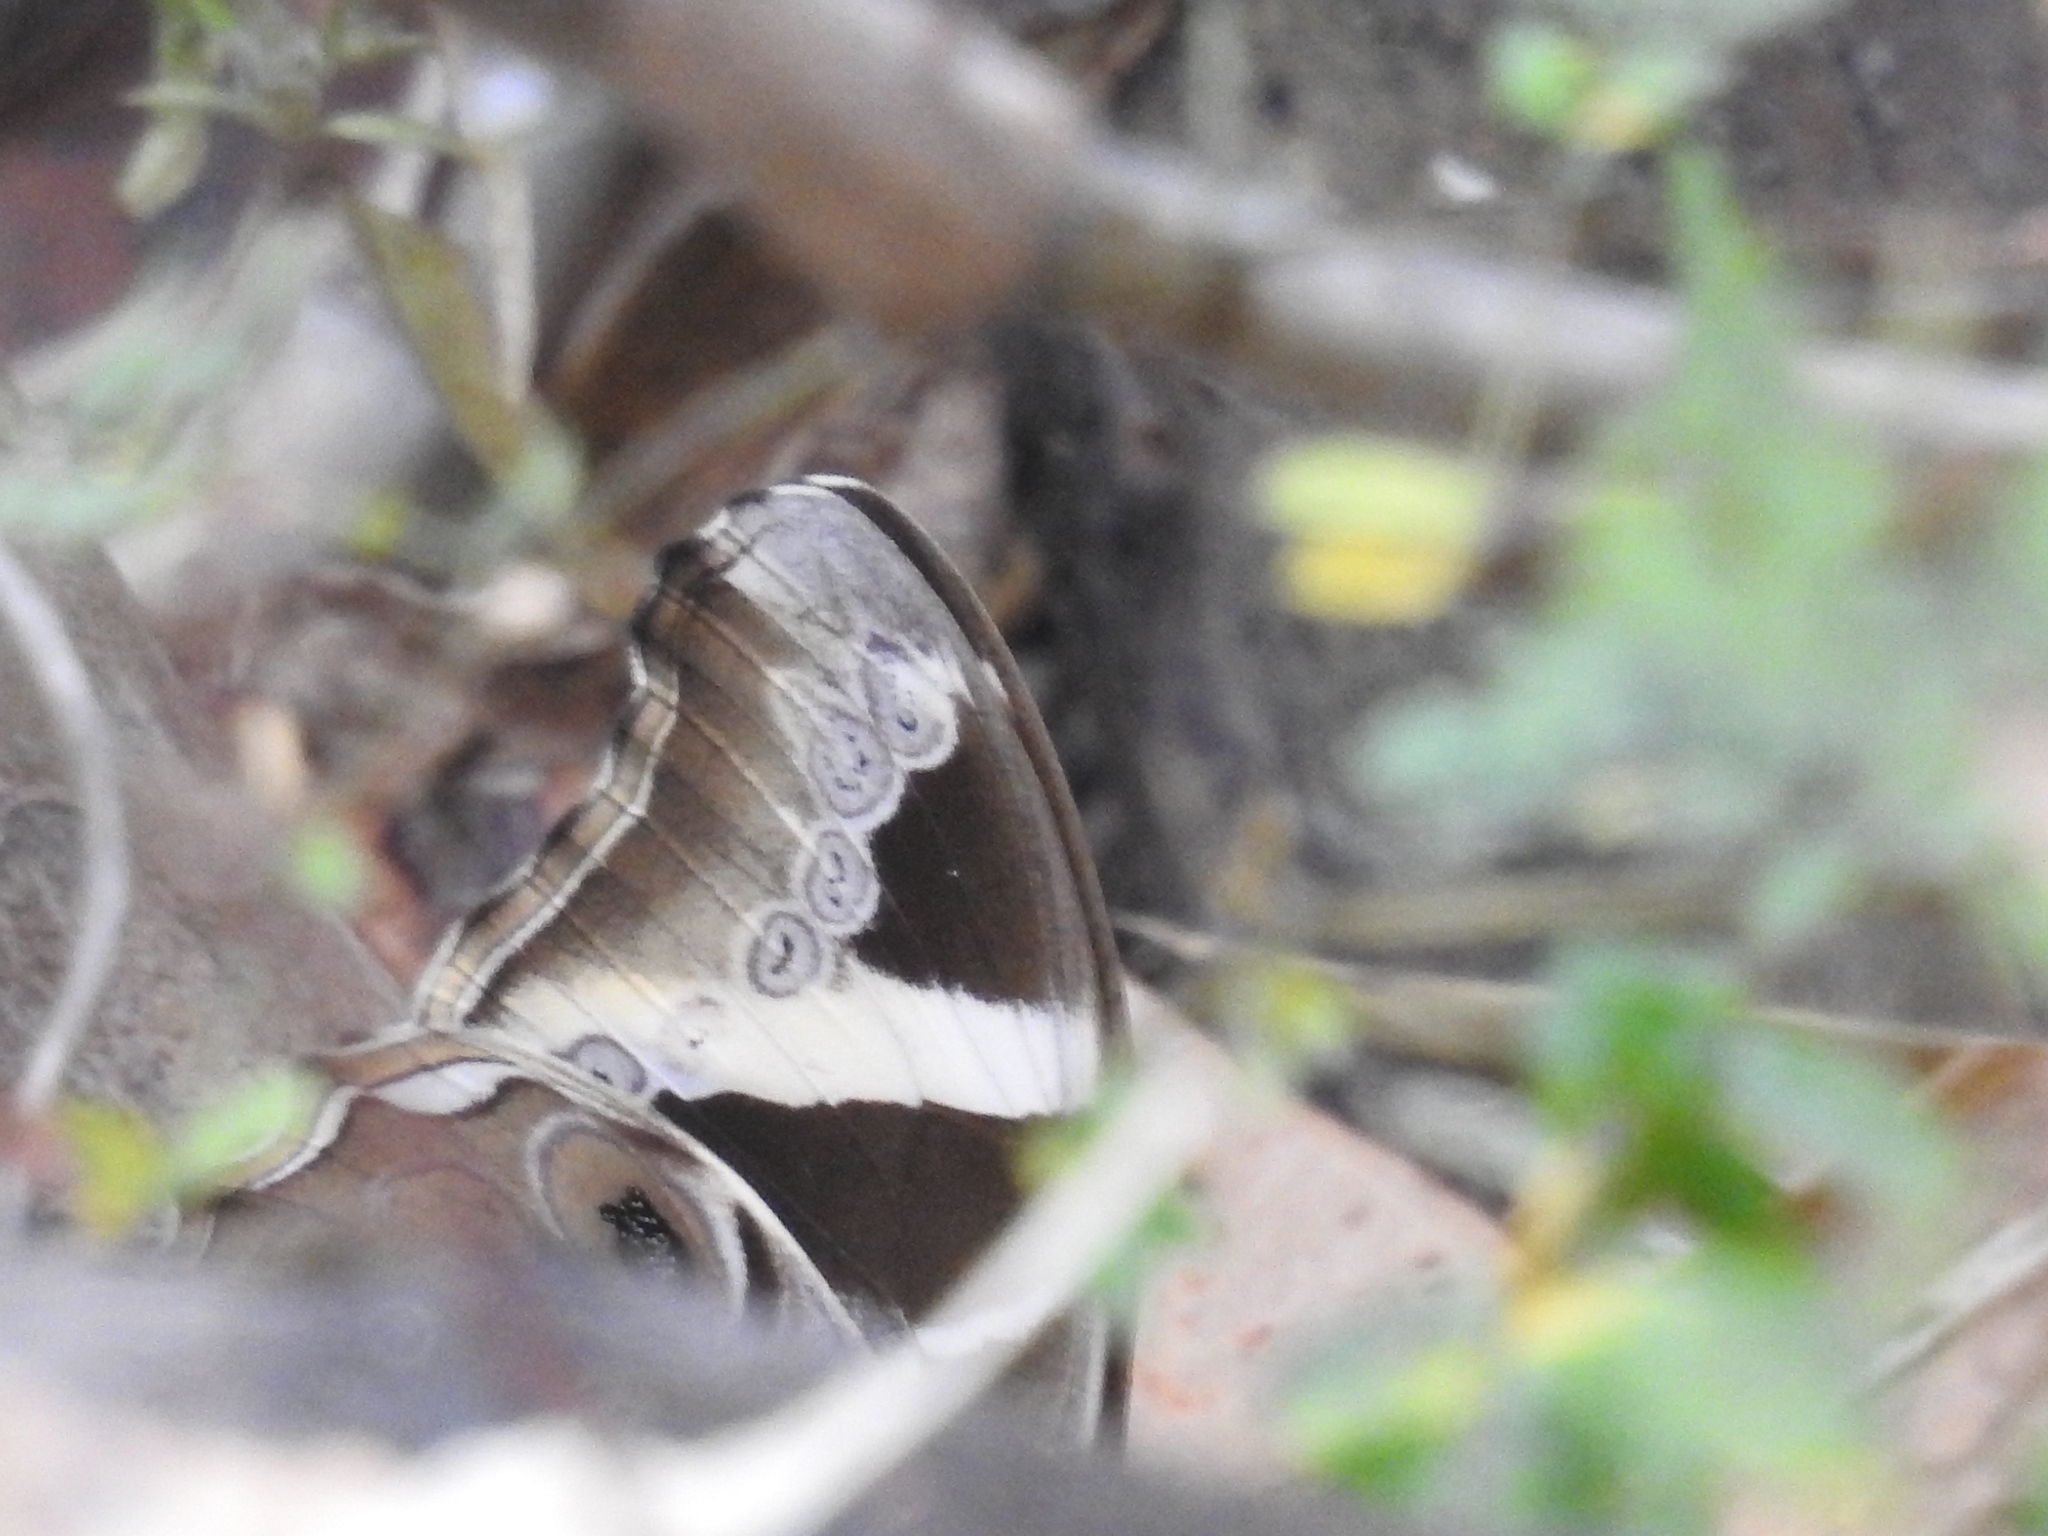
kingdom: Animalia
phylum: Arthropoda
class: Insecta
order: Lepidoptera
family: Nymphalidae
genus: Lethe
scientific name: Lethe europa
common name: Bamboo treebrown
